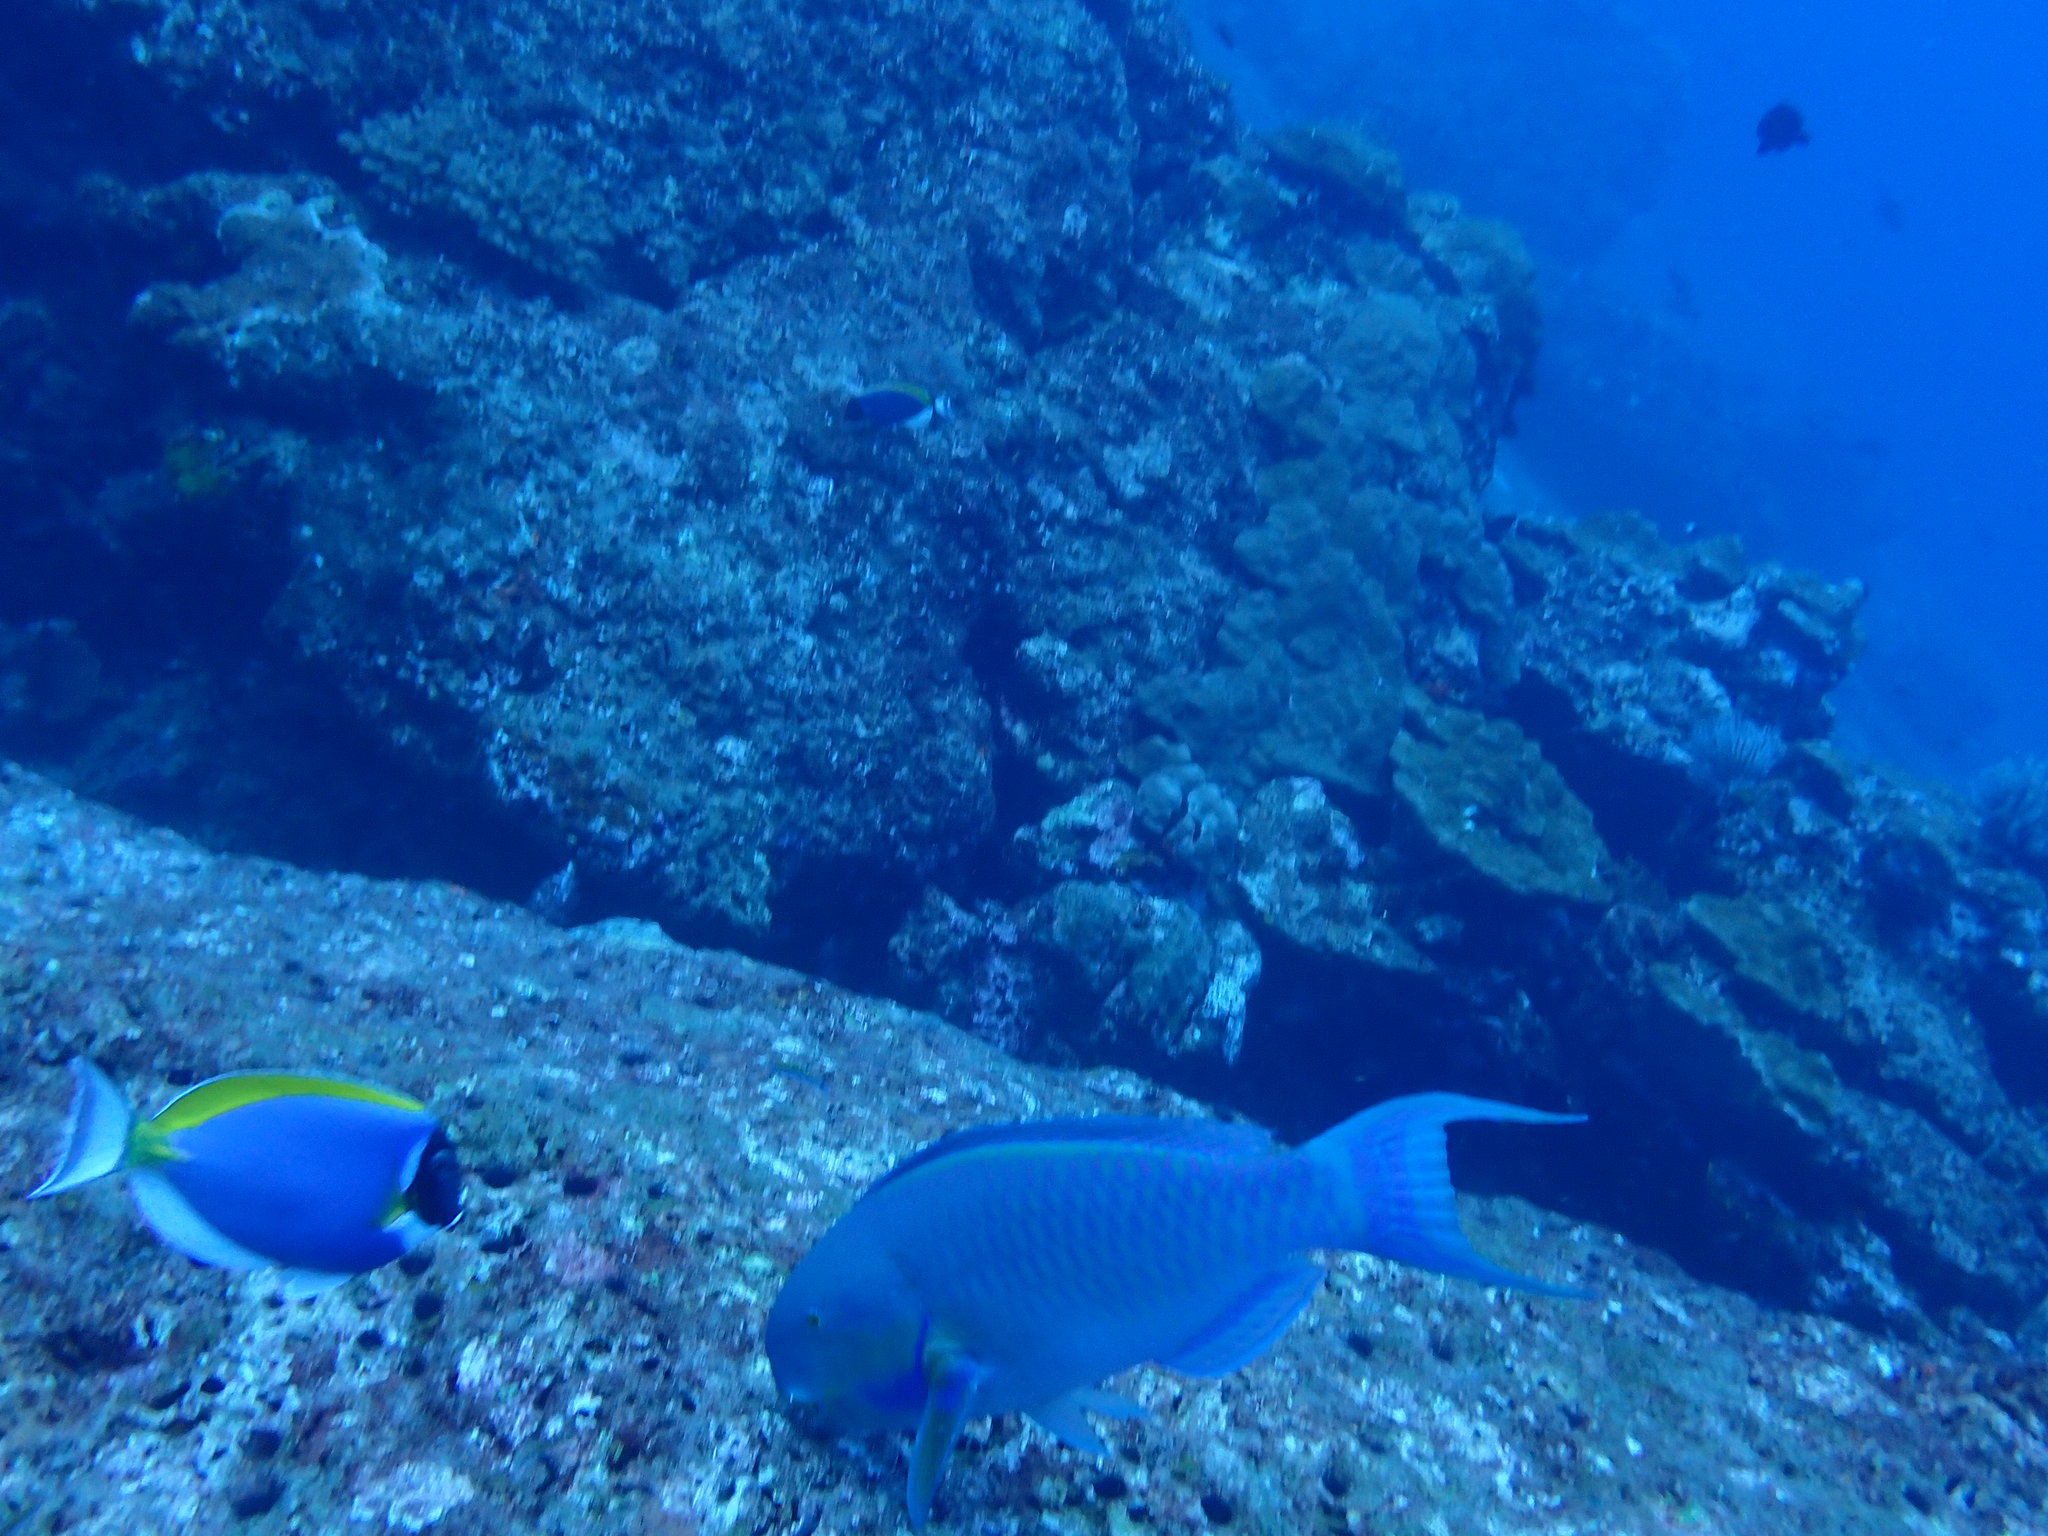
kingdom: Animalia
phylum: Chordata
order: Perciformes
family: Scaridae
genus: Chlorurus
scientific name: Chlorurus strongylocephalus
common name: Steephead parrotfish
